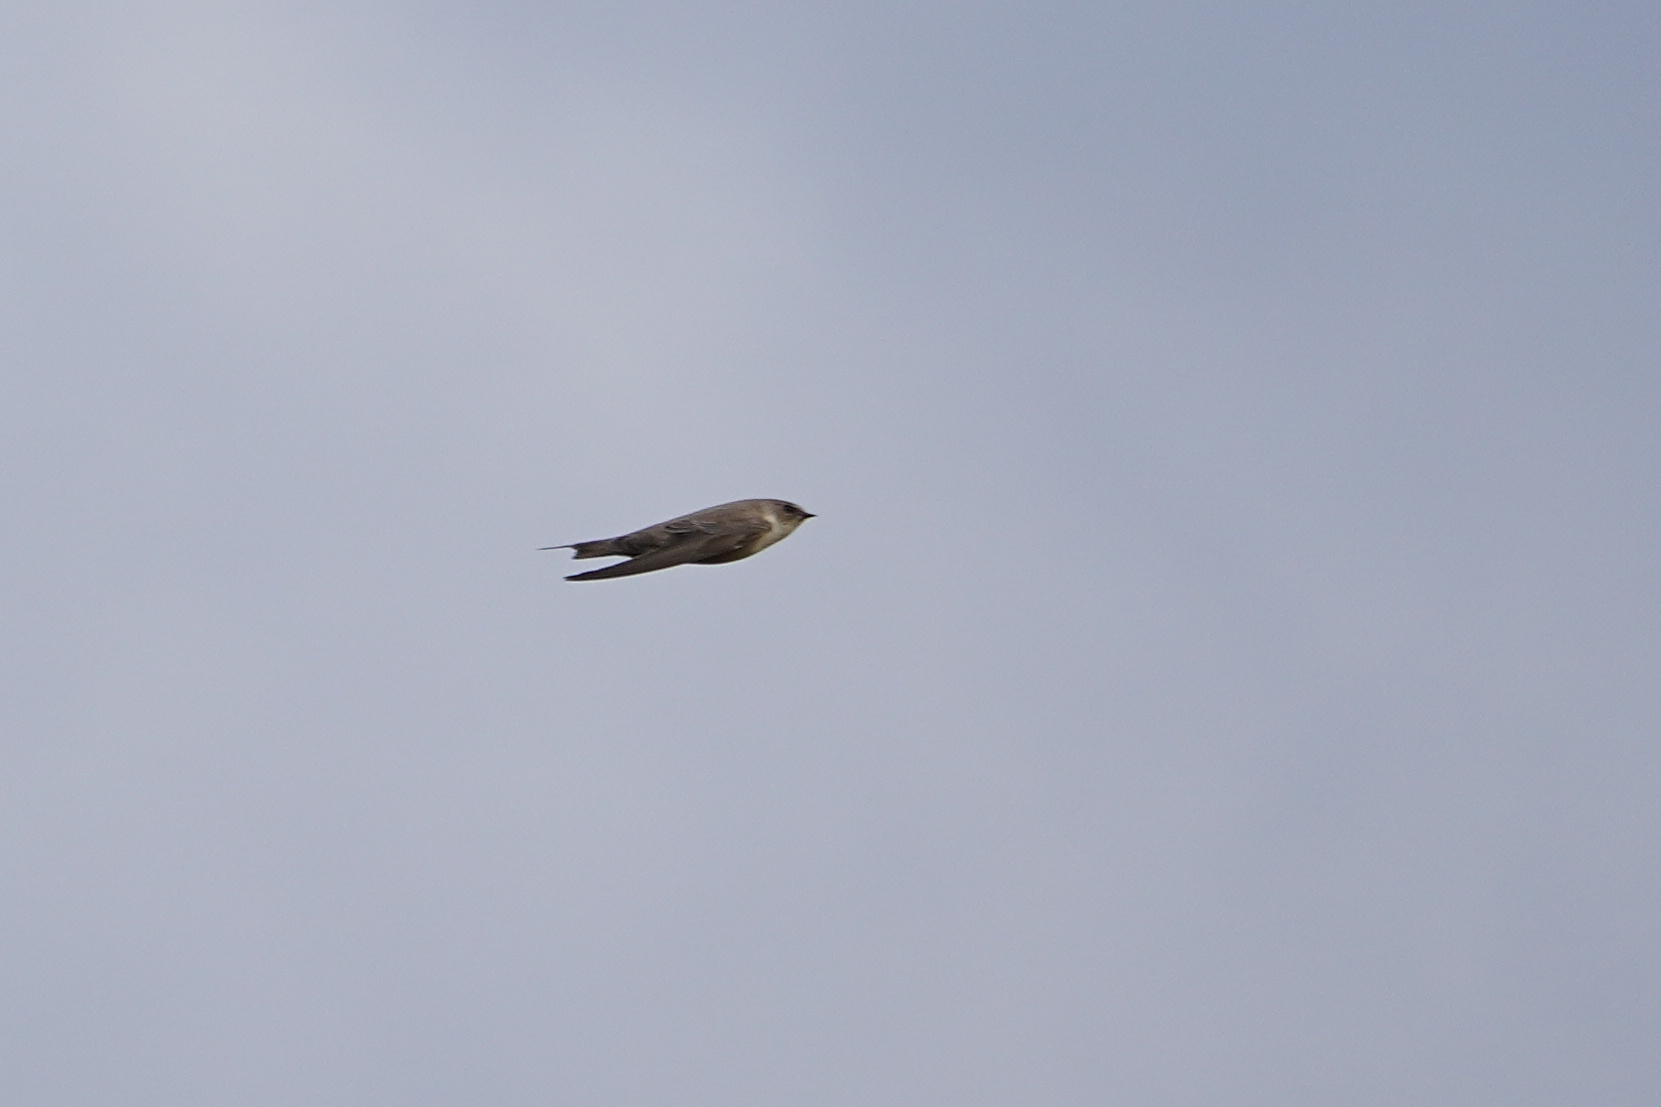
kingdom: Animalia
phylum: Chordata
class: Aves
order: Passeriformes
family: Hirundinidae
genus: Ptyonoprogne
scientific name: Ptyonoprogne rupestris
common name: Eurasian crag martin
